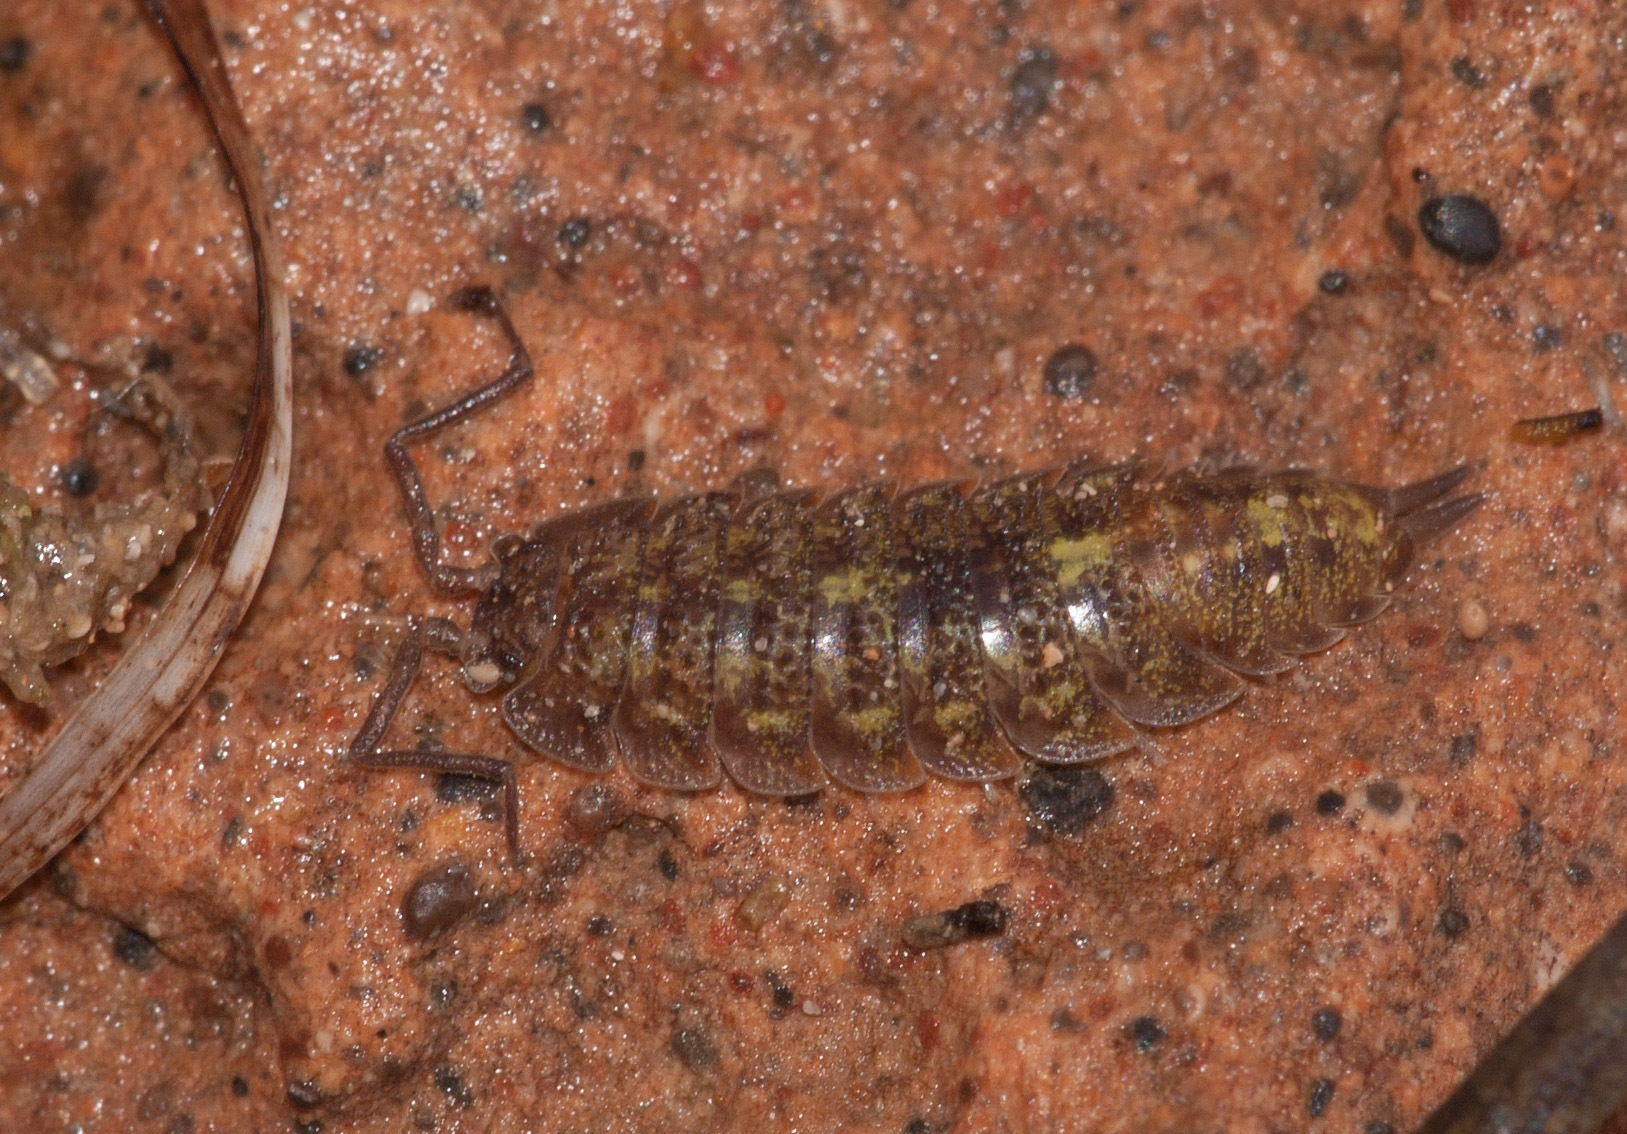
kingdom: Animalia
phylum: Arthropoda
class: Malacostraca
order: Isopoda
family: Detonidae
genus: Deto
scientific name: Deto marina
